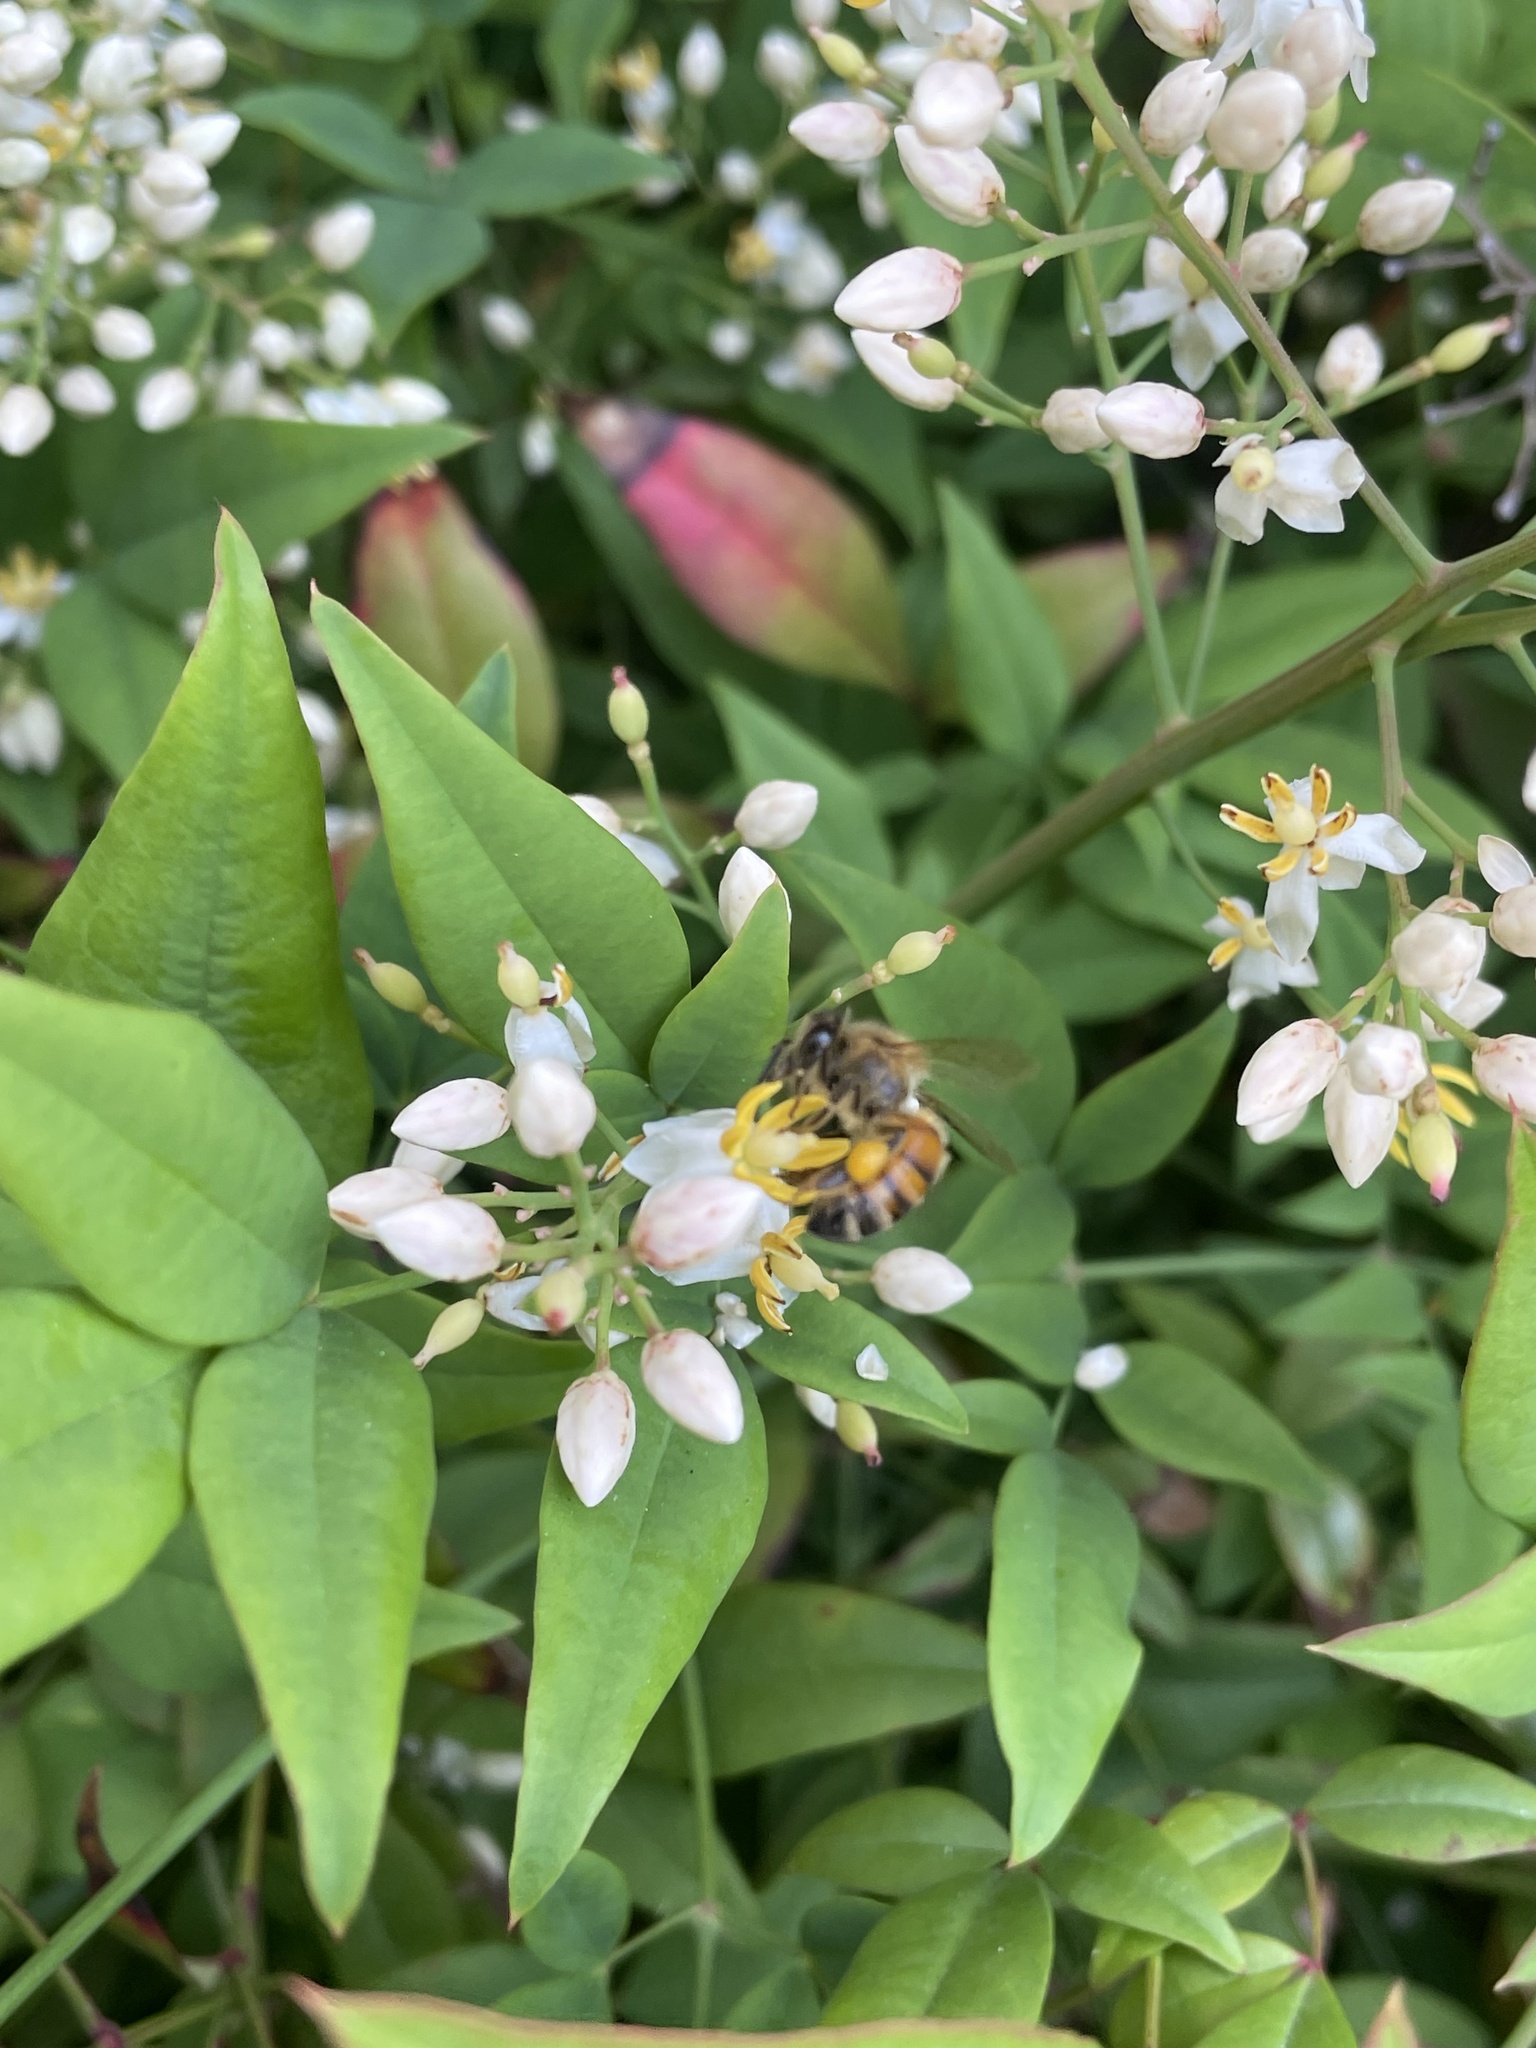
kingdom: Animalia
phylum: Arthropoda
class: Insecta
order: Hymenoptera
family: Apidae
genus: Apis
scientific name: Apis mellifera
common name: Honey bee
